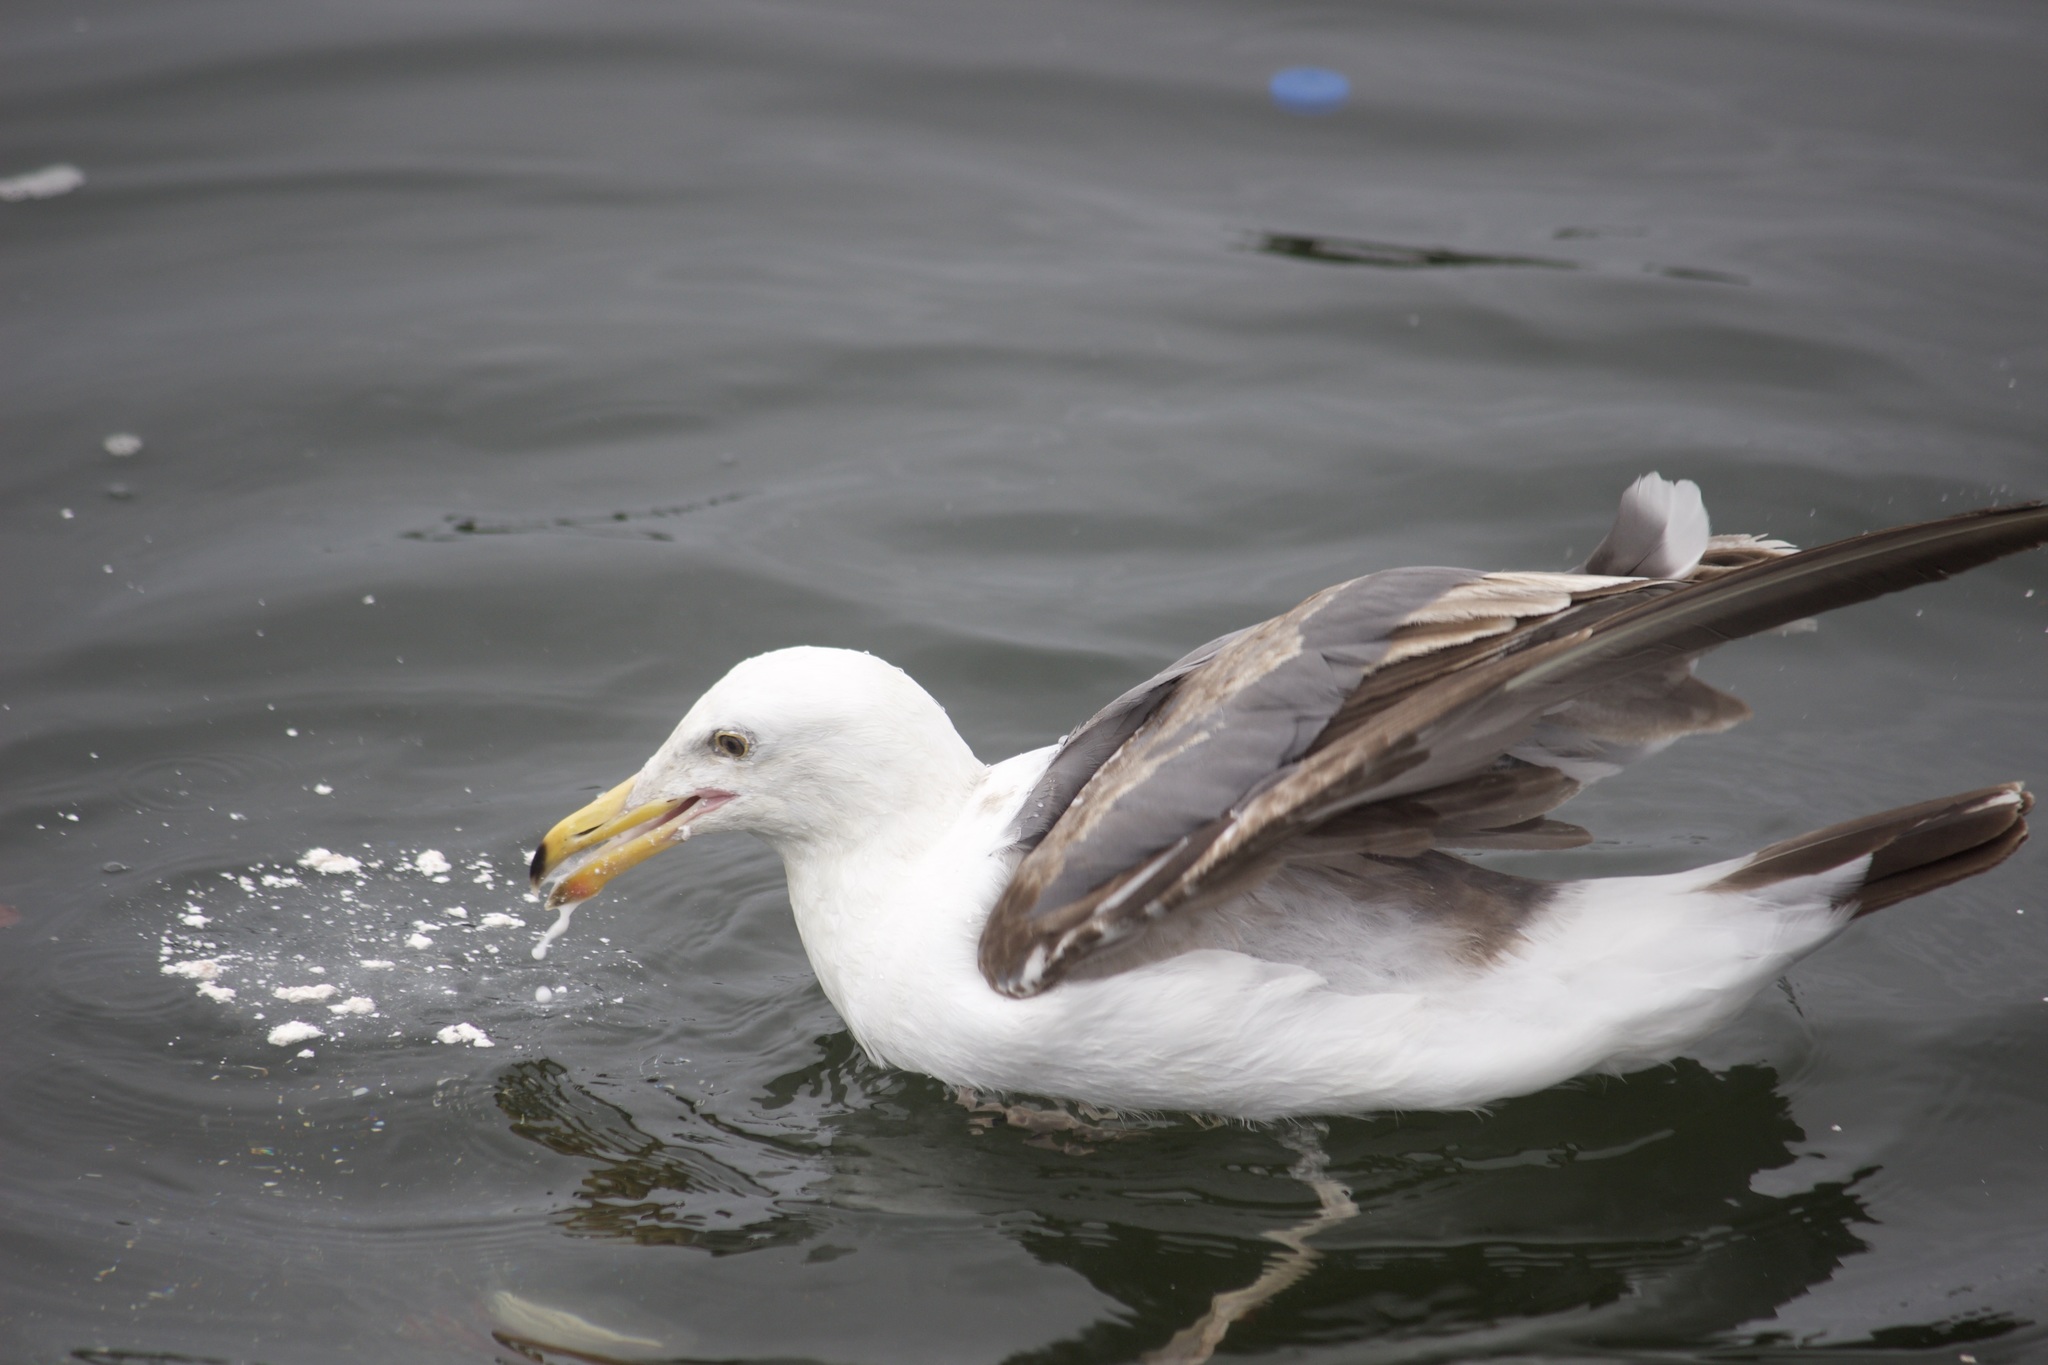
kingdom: Animalia
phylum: Chordata
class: Aves
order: Charadriiformes
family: Laridae
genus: Larus
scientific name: Larus occidentalis
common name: Western gull
